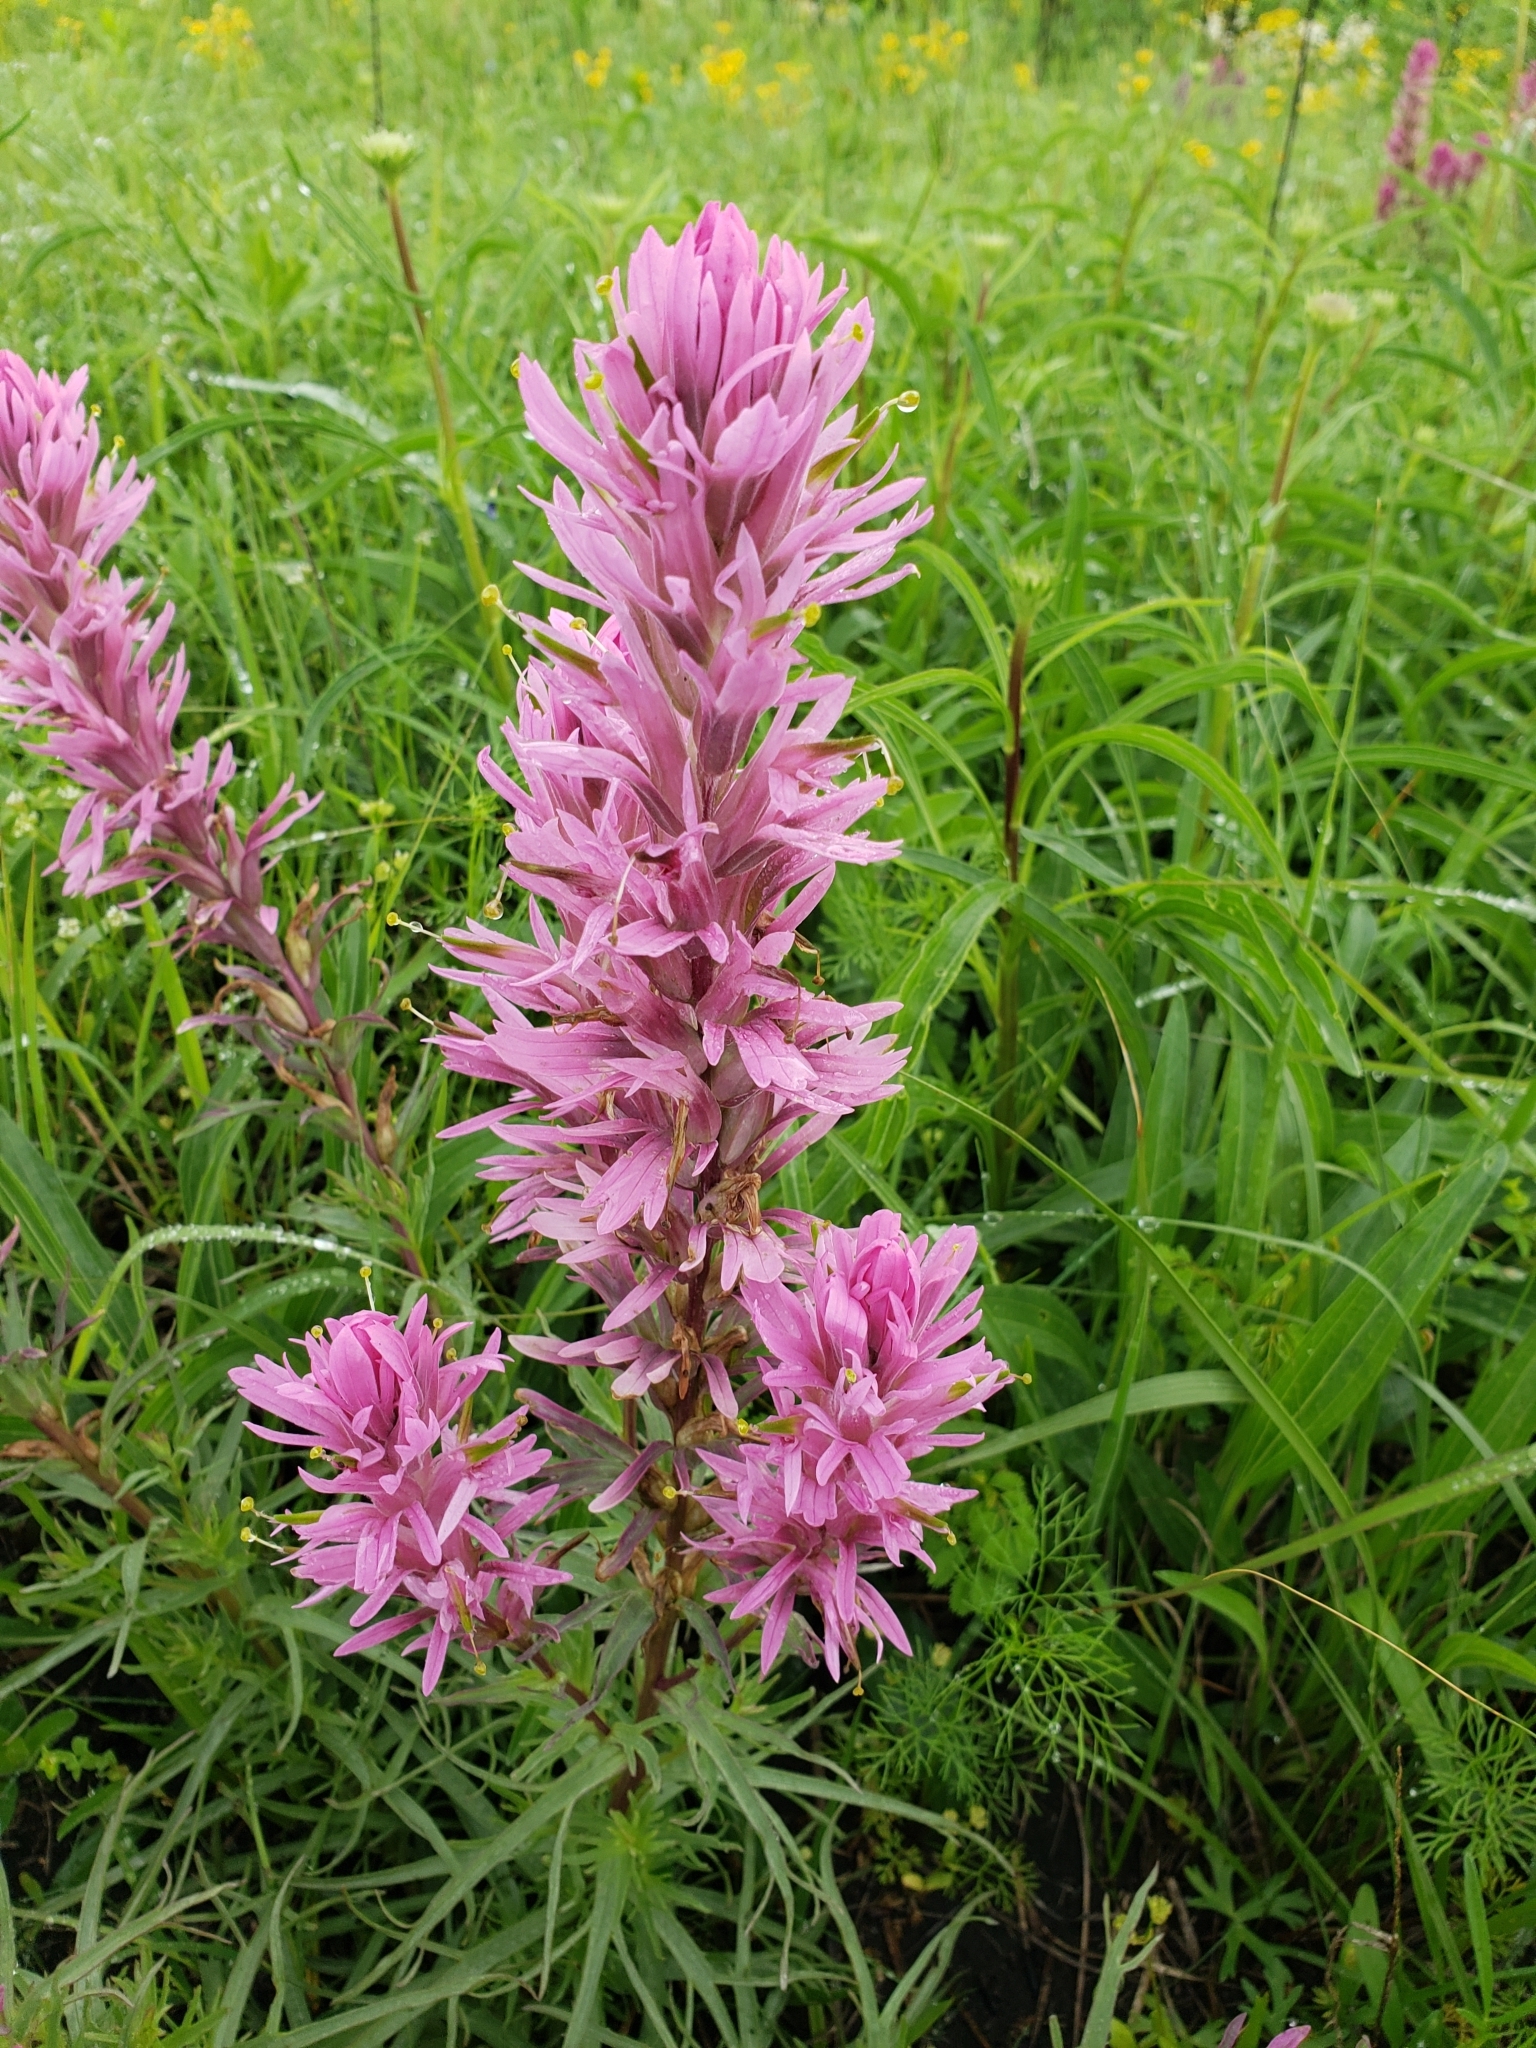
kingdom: Plantae
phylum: Tracheophyta
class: Magnoliopsida
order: Lamiales
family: Orobanchaceae
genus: Castilleja
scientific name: Castilleja purpurea
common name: Plains paintbrush
